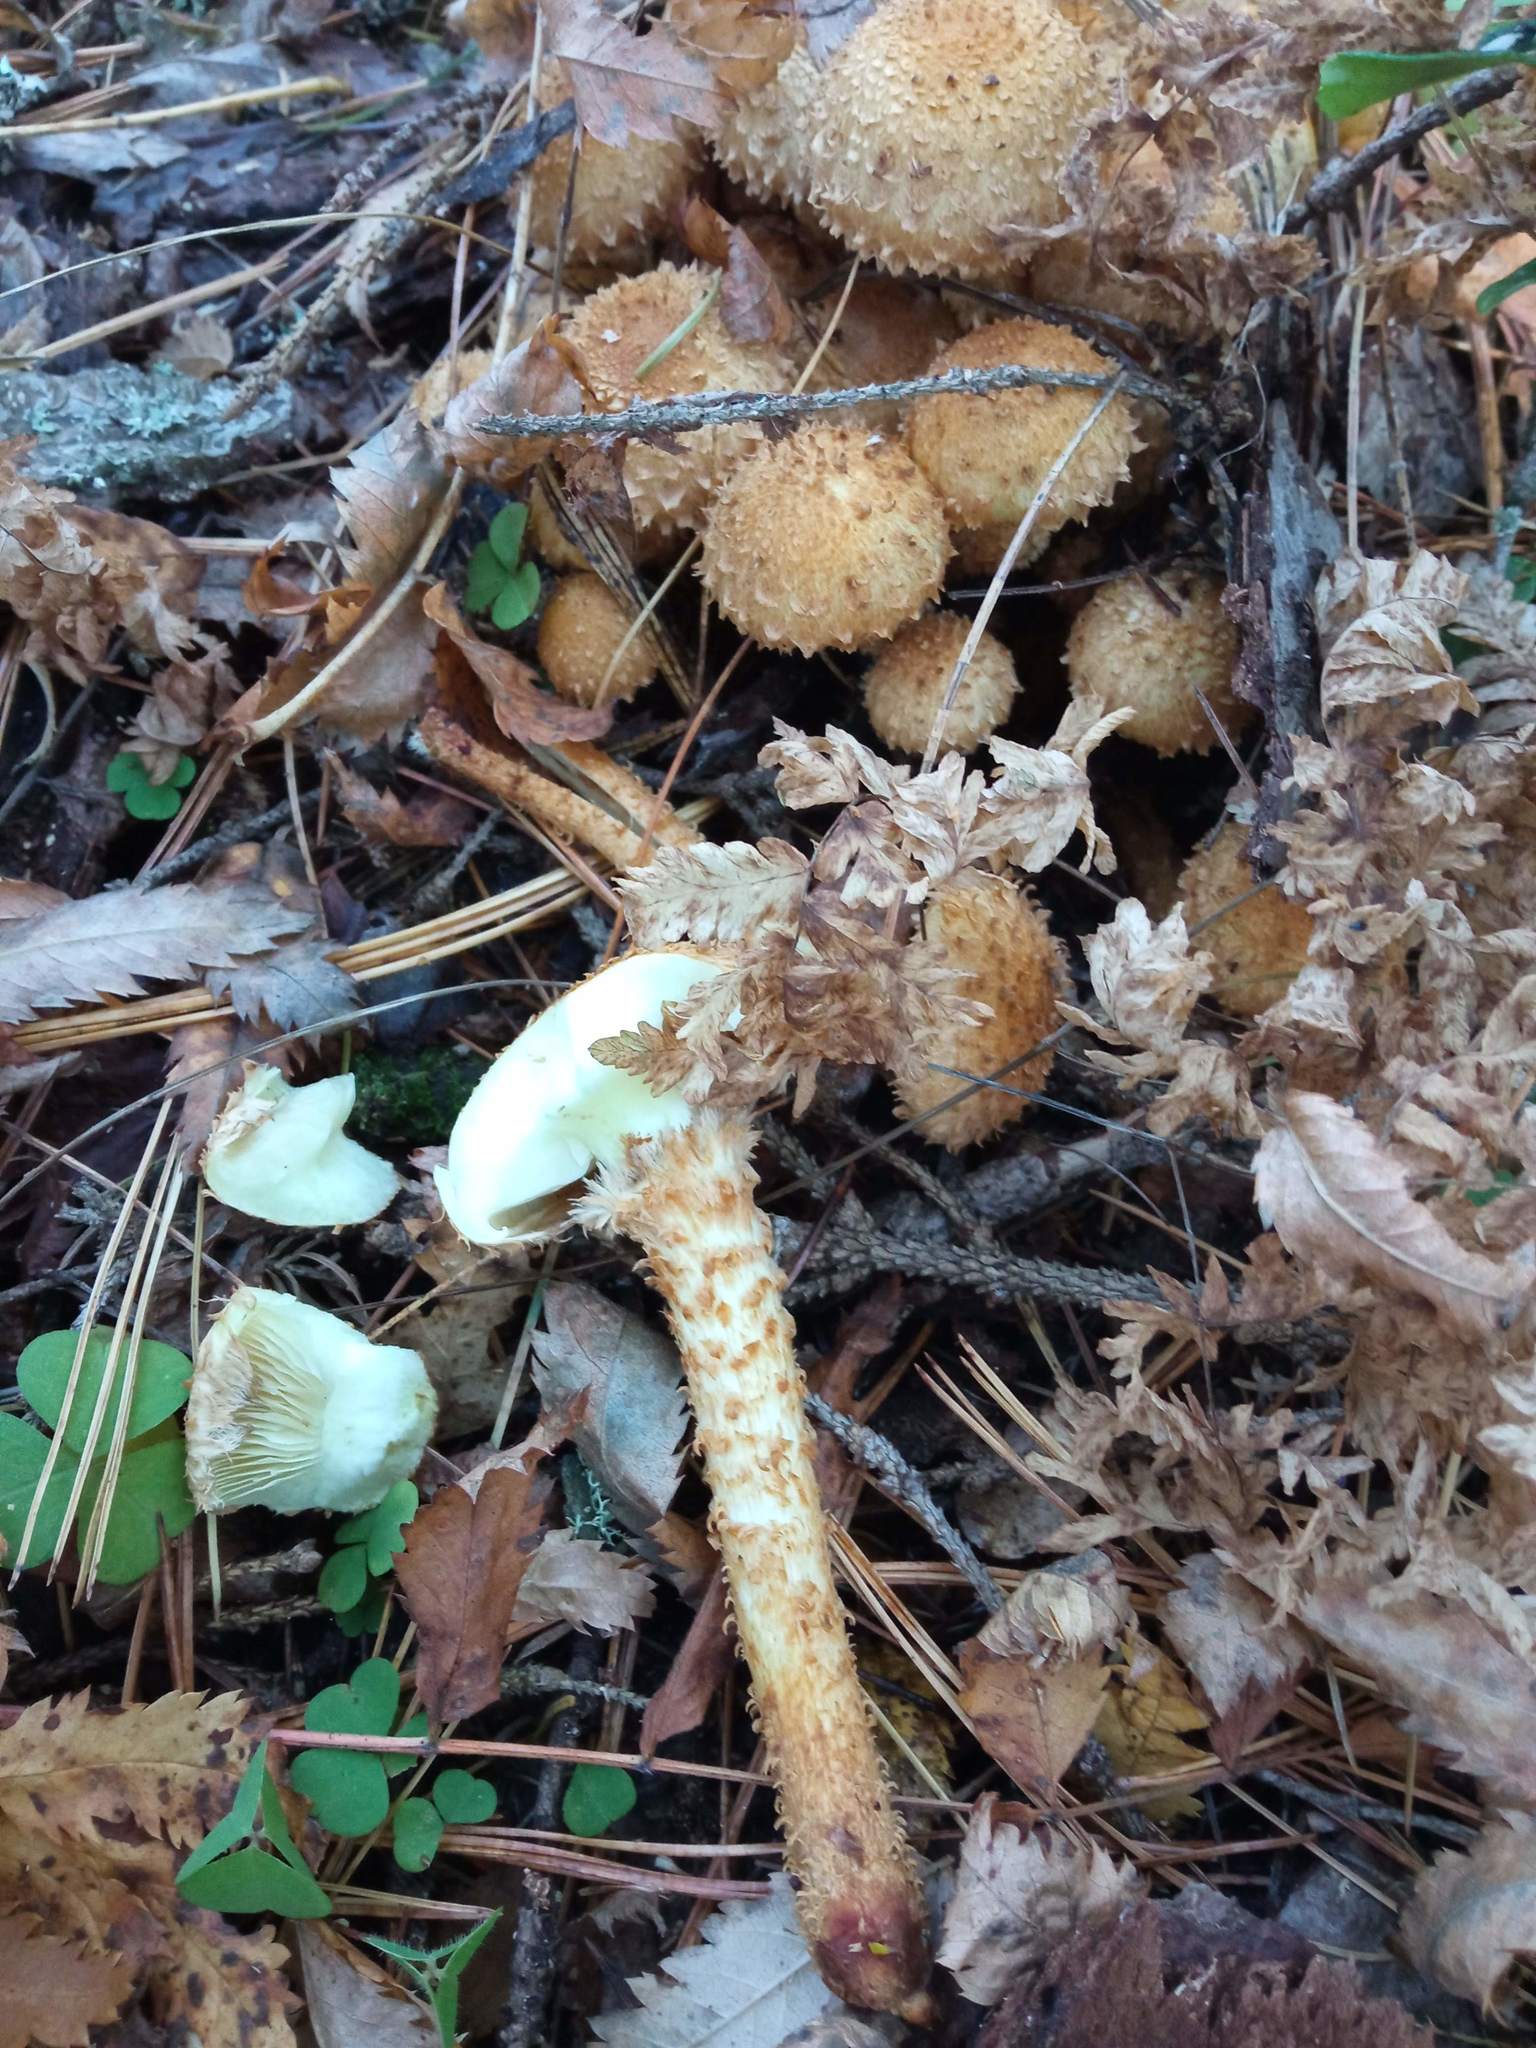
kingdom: Fungi
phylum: Basidiomycota
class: Agaricomycetes
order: Agaricales
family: Strophariaceae
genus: Pholiota
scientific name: Pholiota squarrosa
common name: Shaggy pholiota
